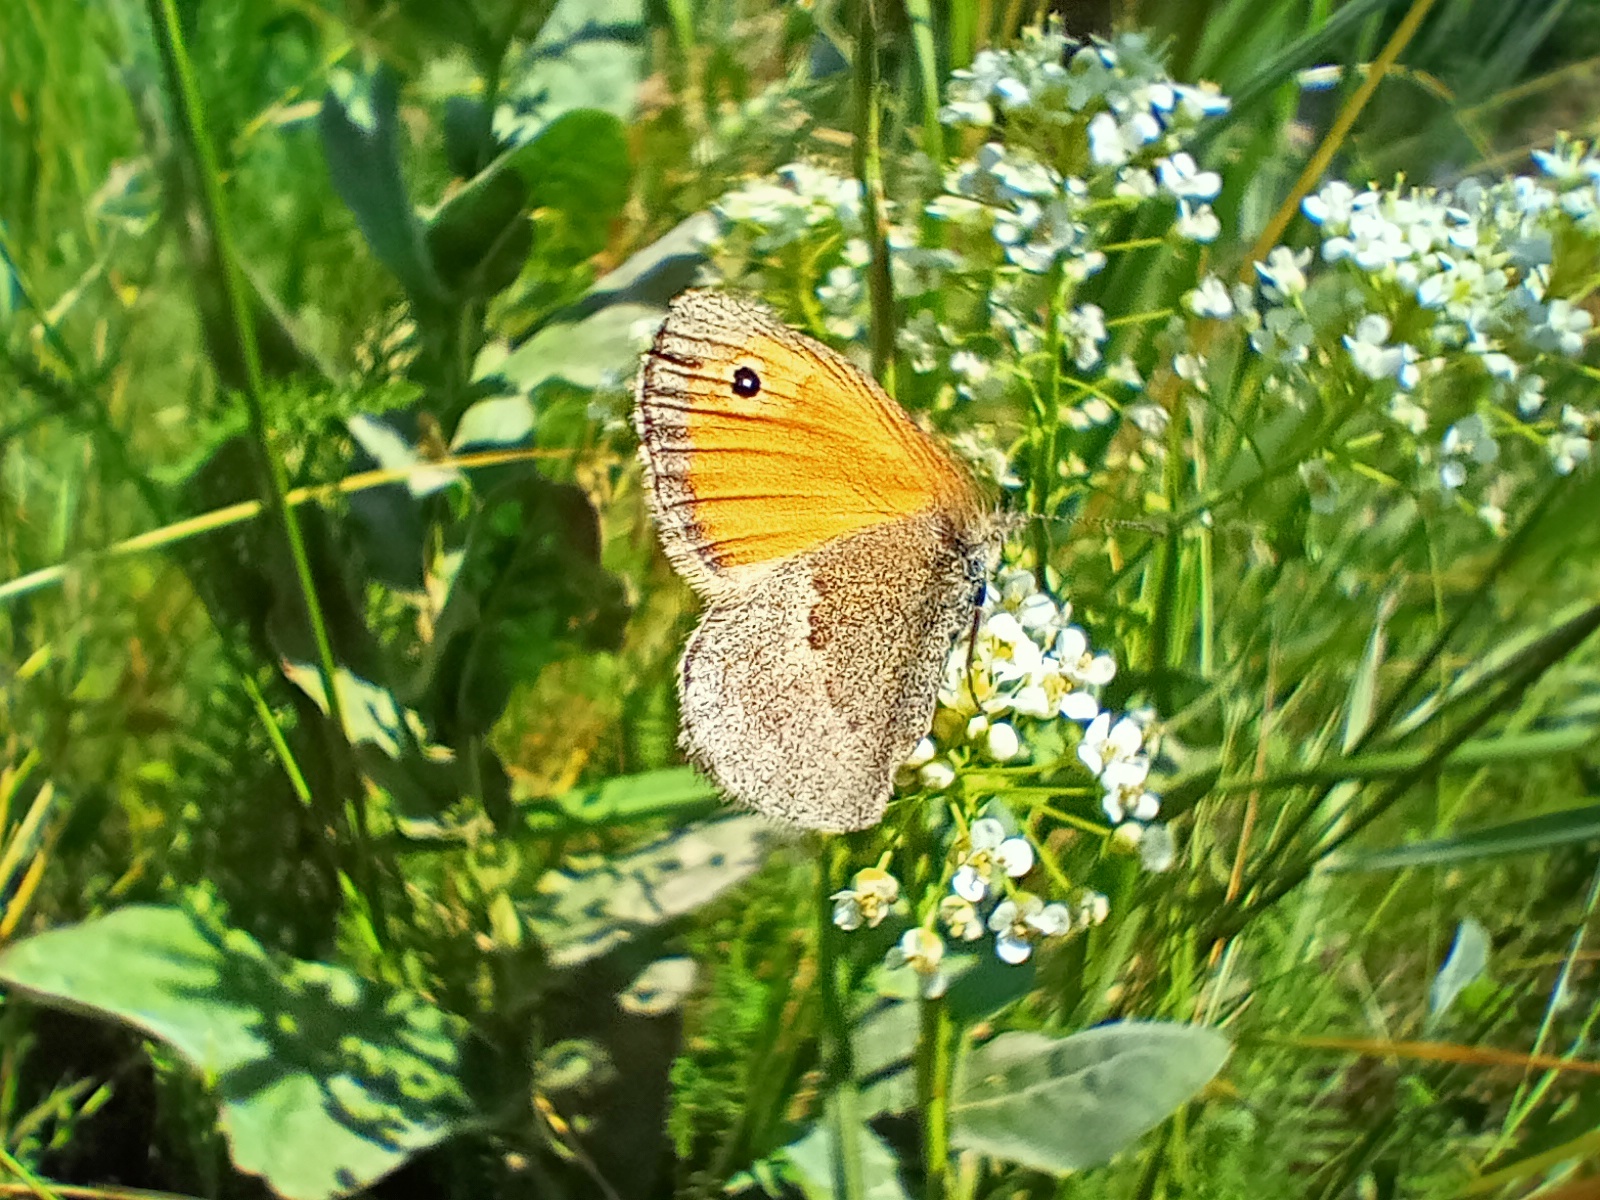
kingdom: Animalia
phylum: Arthropoda
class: Insecta
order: Lepidoptera
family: Nymphalidae
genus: Coenonympha
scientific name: Coenonympha pamphilus
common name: Small heath
